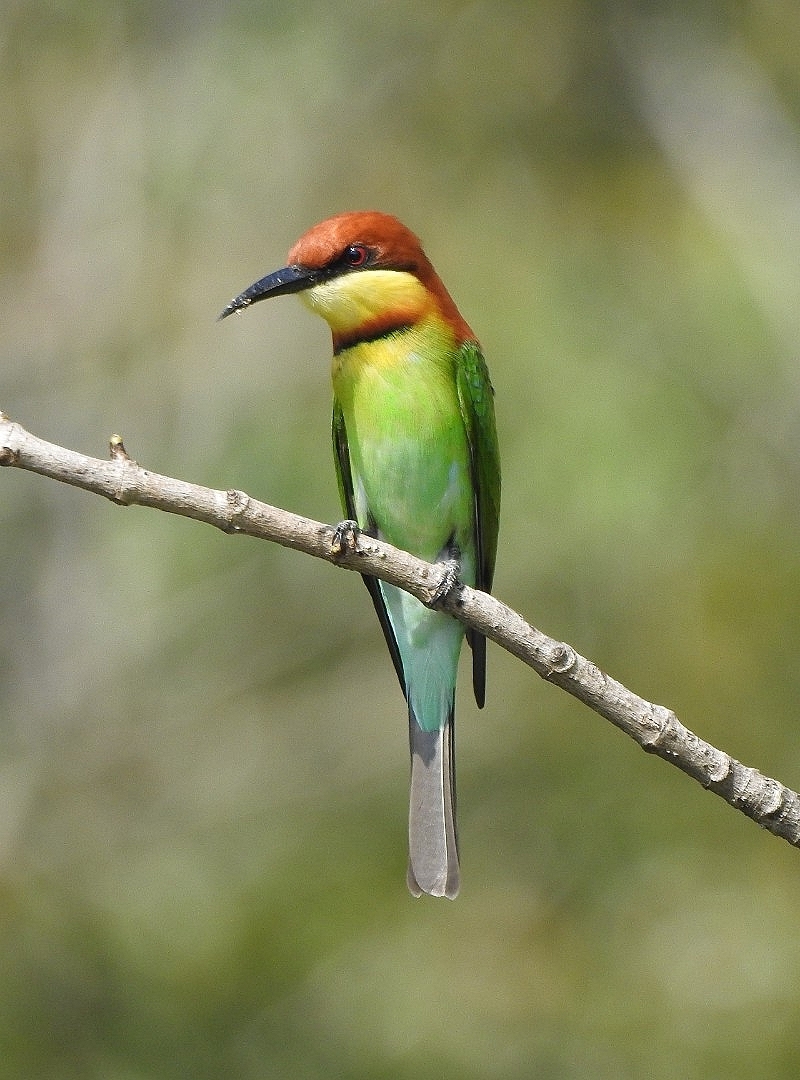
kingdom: Animalia
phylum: Chordata
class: Aves
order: Coraciiformes
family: Meropidae
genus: Merops
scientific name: Merops leschenaulti
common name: Chestnut-headed bee-eater
